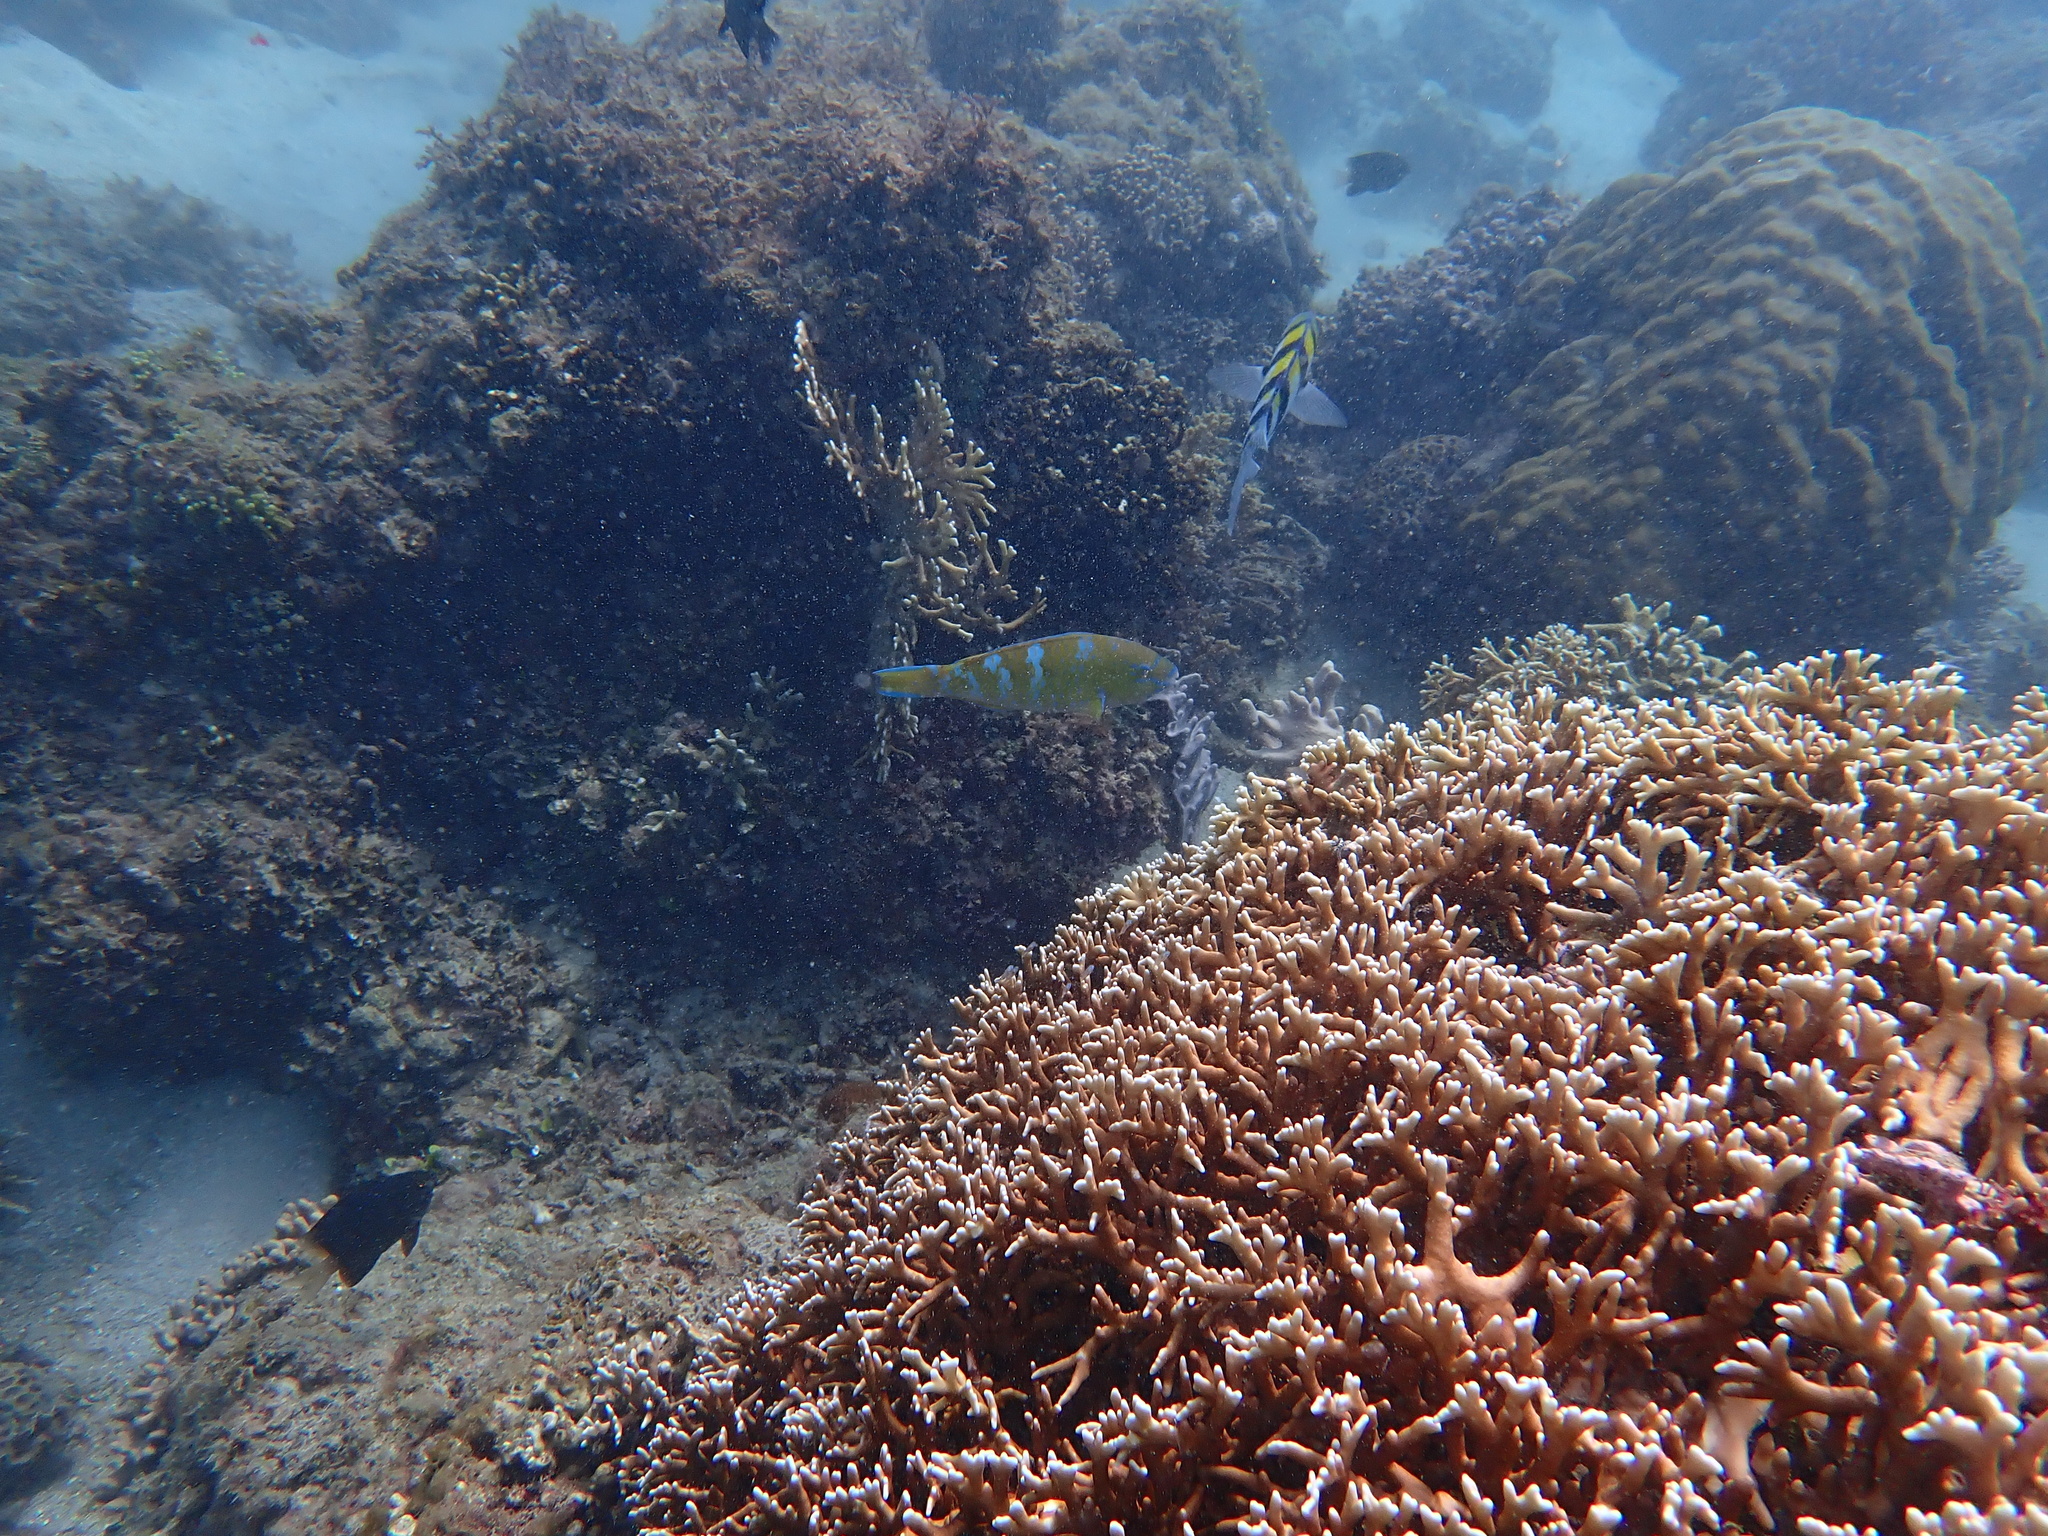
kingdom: Animalia
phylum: Chordata
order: Perciformes
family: Scaridae
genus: Scarus
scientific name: Scarus ghobban
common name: Blue-barred parrotfish
